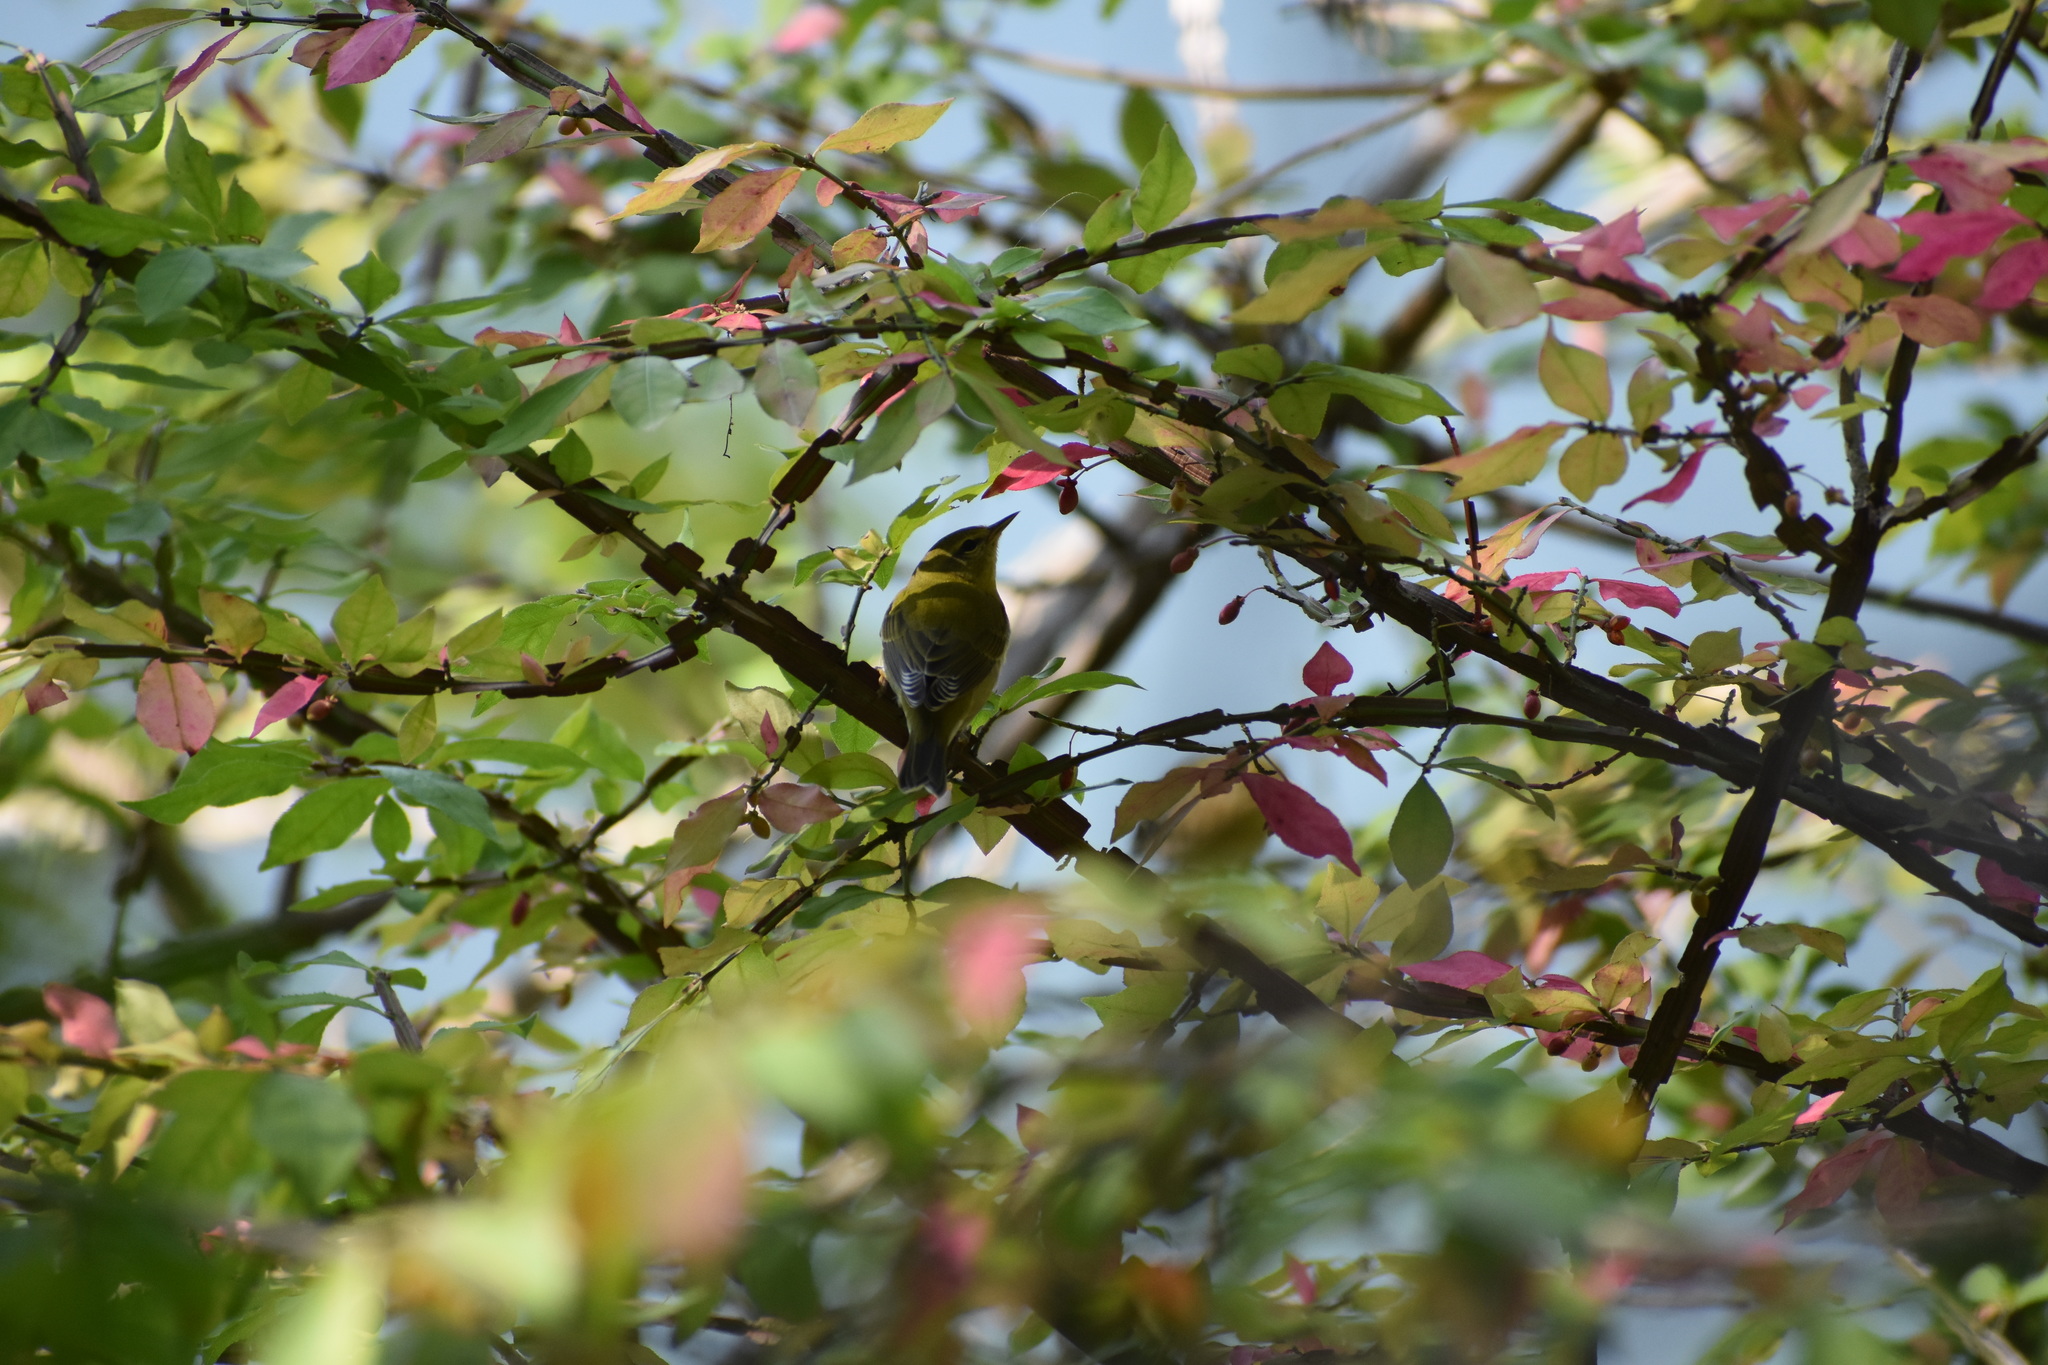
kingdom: Animalia
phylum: Chordata
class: Aves
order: Passeriformes
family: Parulidae
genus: Leiothlypis
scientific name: Leiothlypis peregrina
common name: Tennessee warbler
